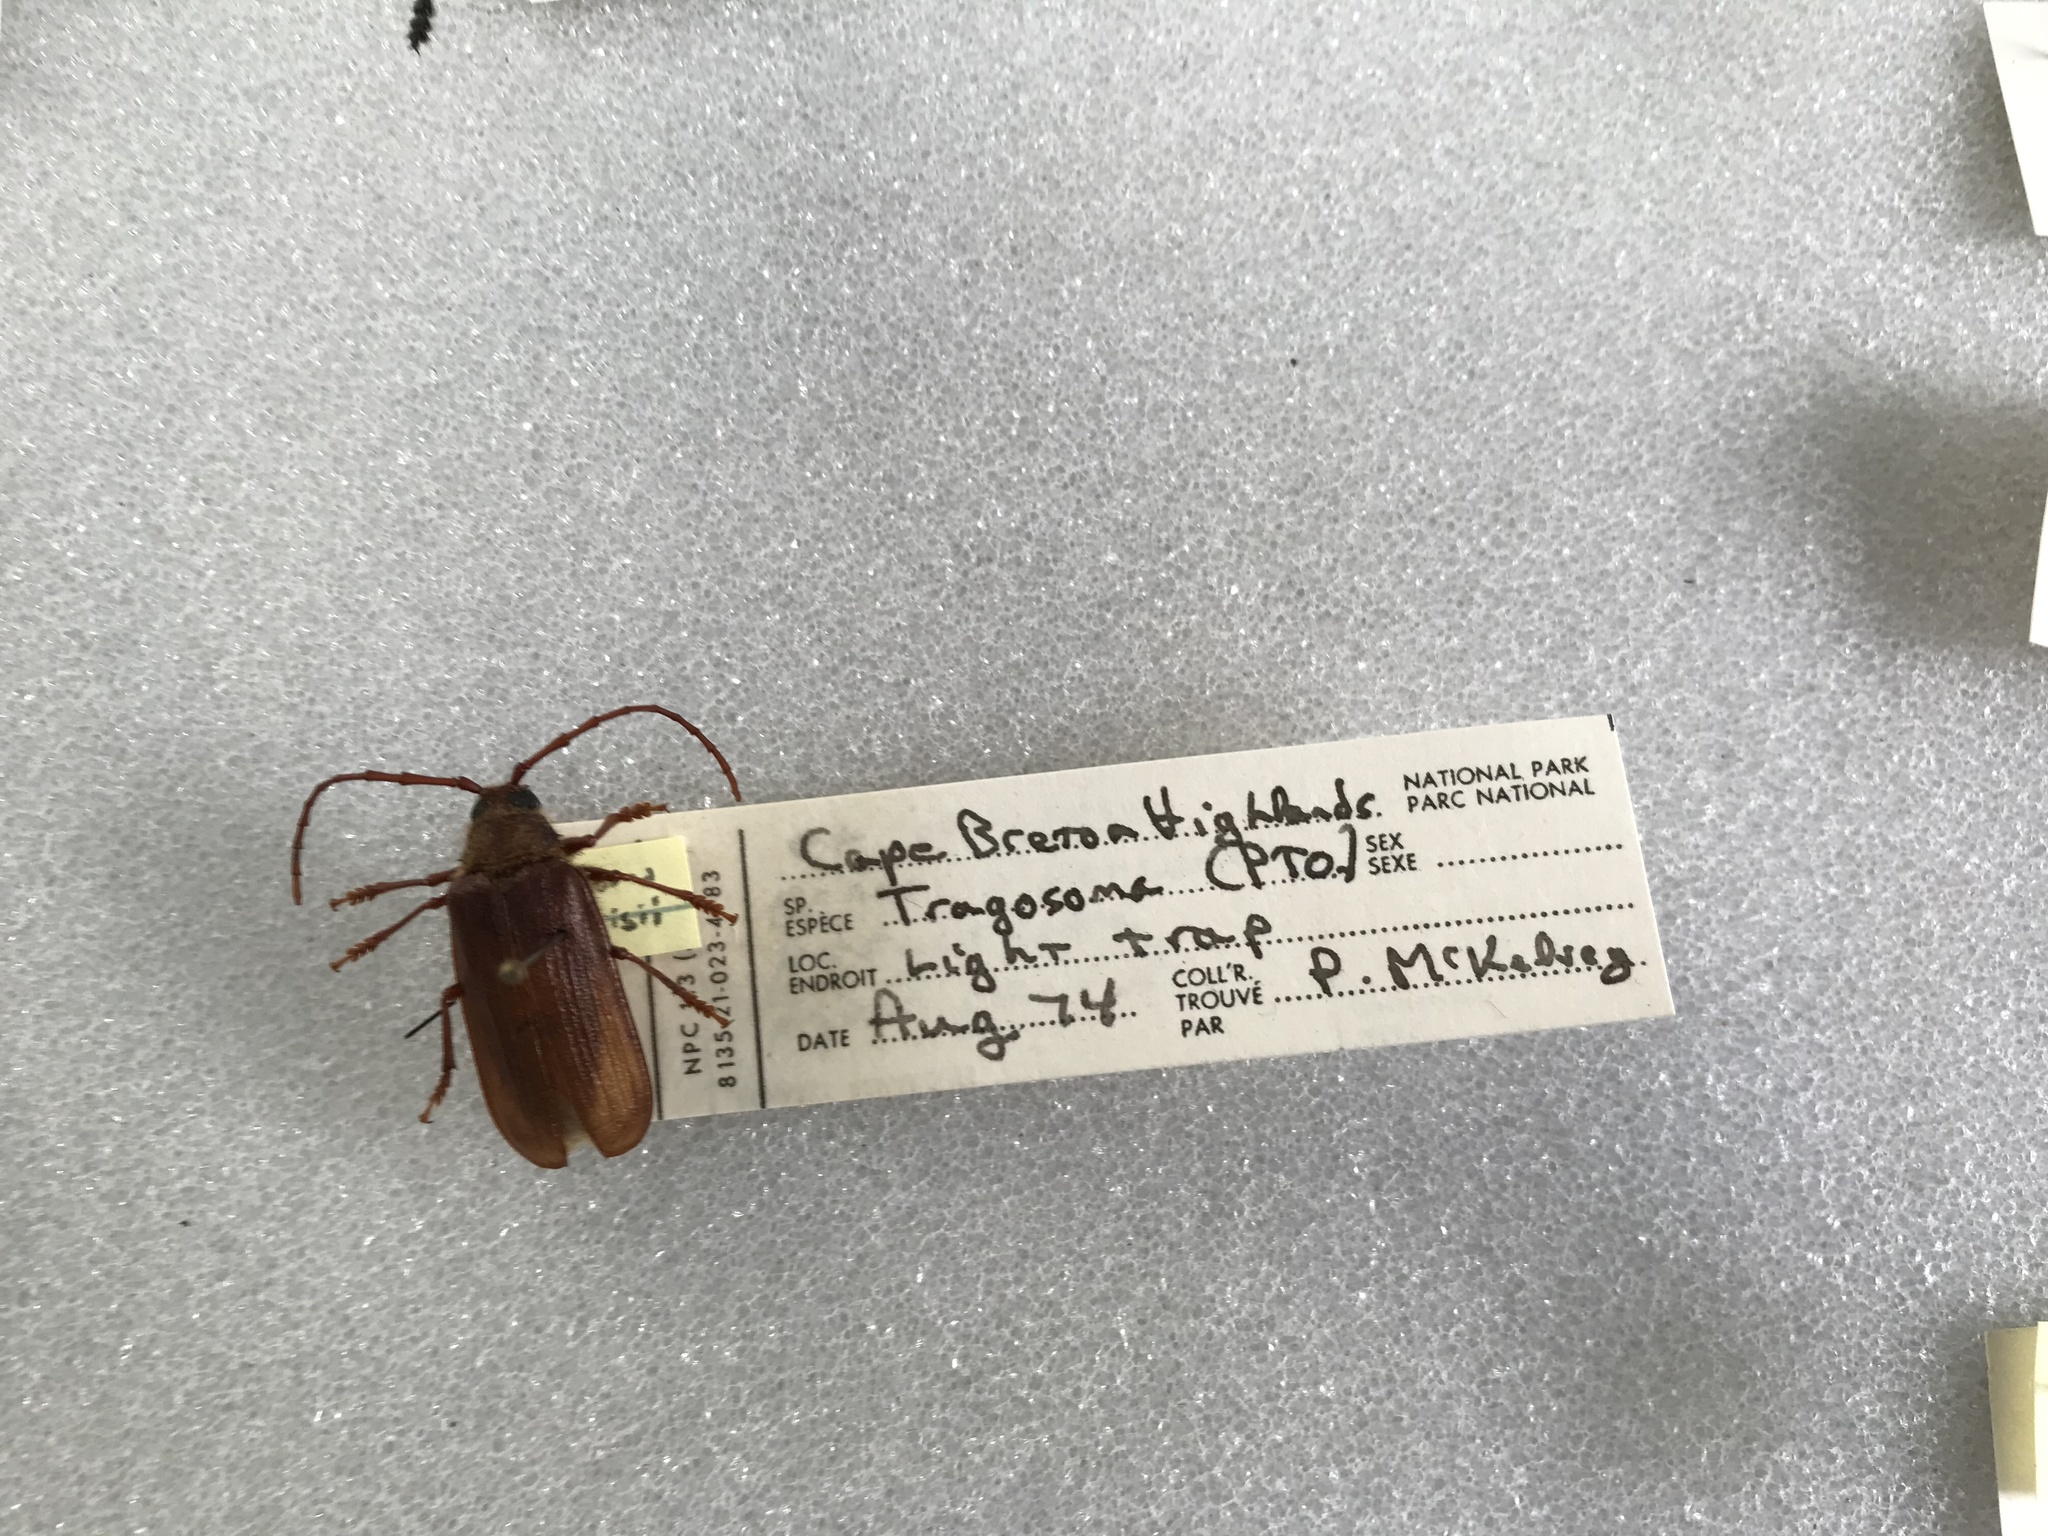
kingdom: Animalia
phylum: Arthropoda
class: Insecta
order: Coleoptera
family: Cerambycidae
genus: Tragosoma
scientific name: Tragosoma harrisii
